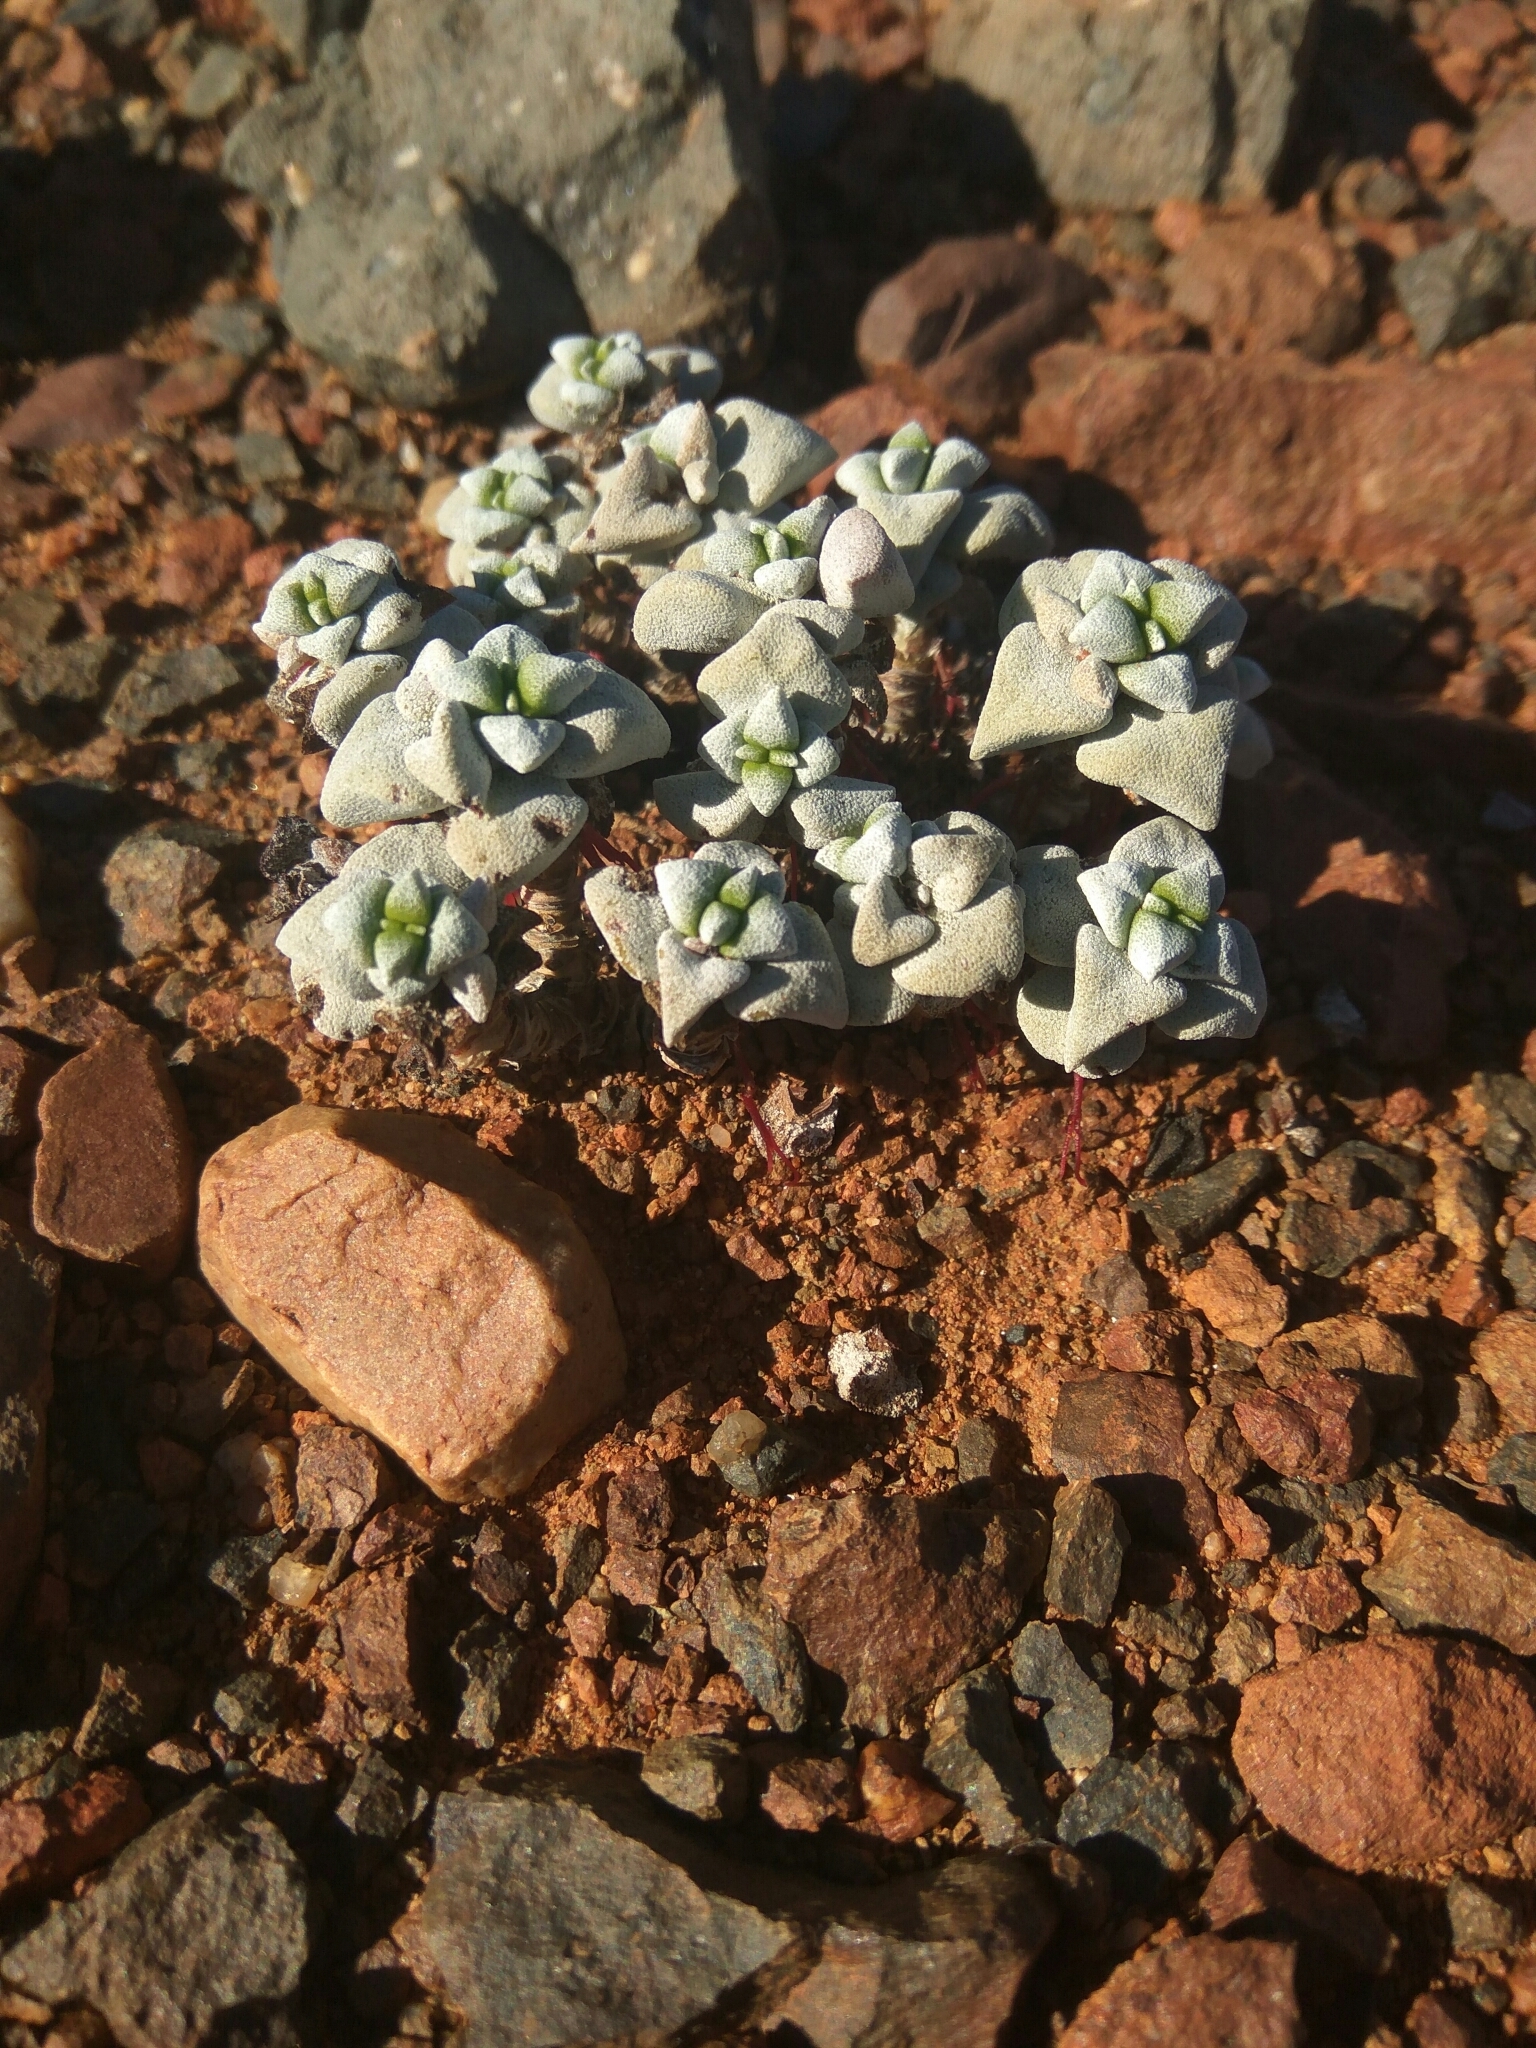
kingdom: Plantae
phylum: Tracheophyta
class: Magnoliopsida
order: Saxifragales
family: Crassulaceae
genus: Crassula
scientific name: Crassula deltoidea
